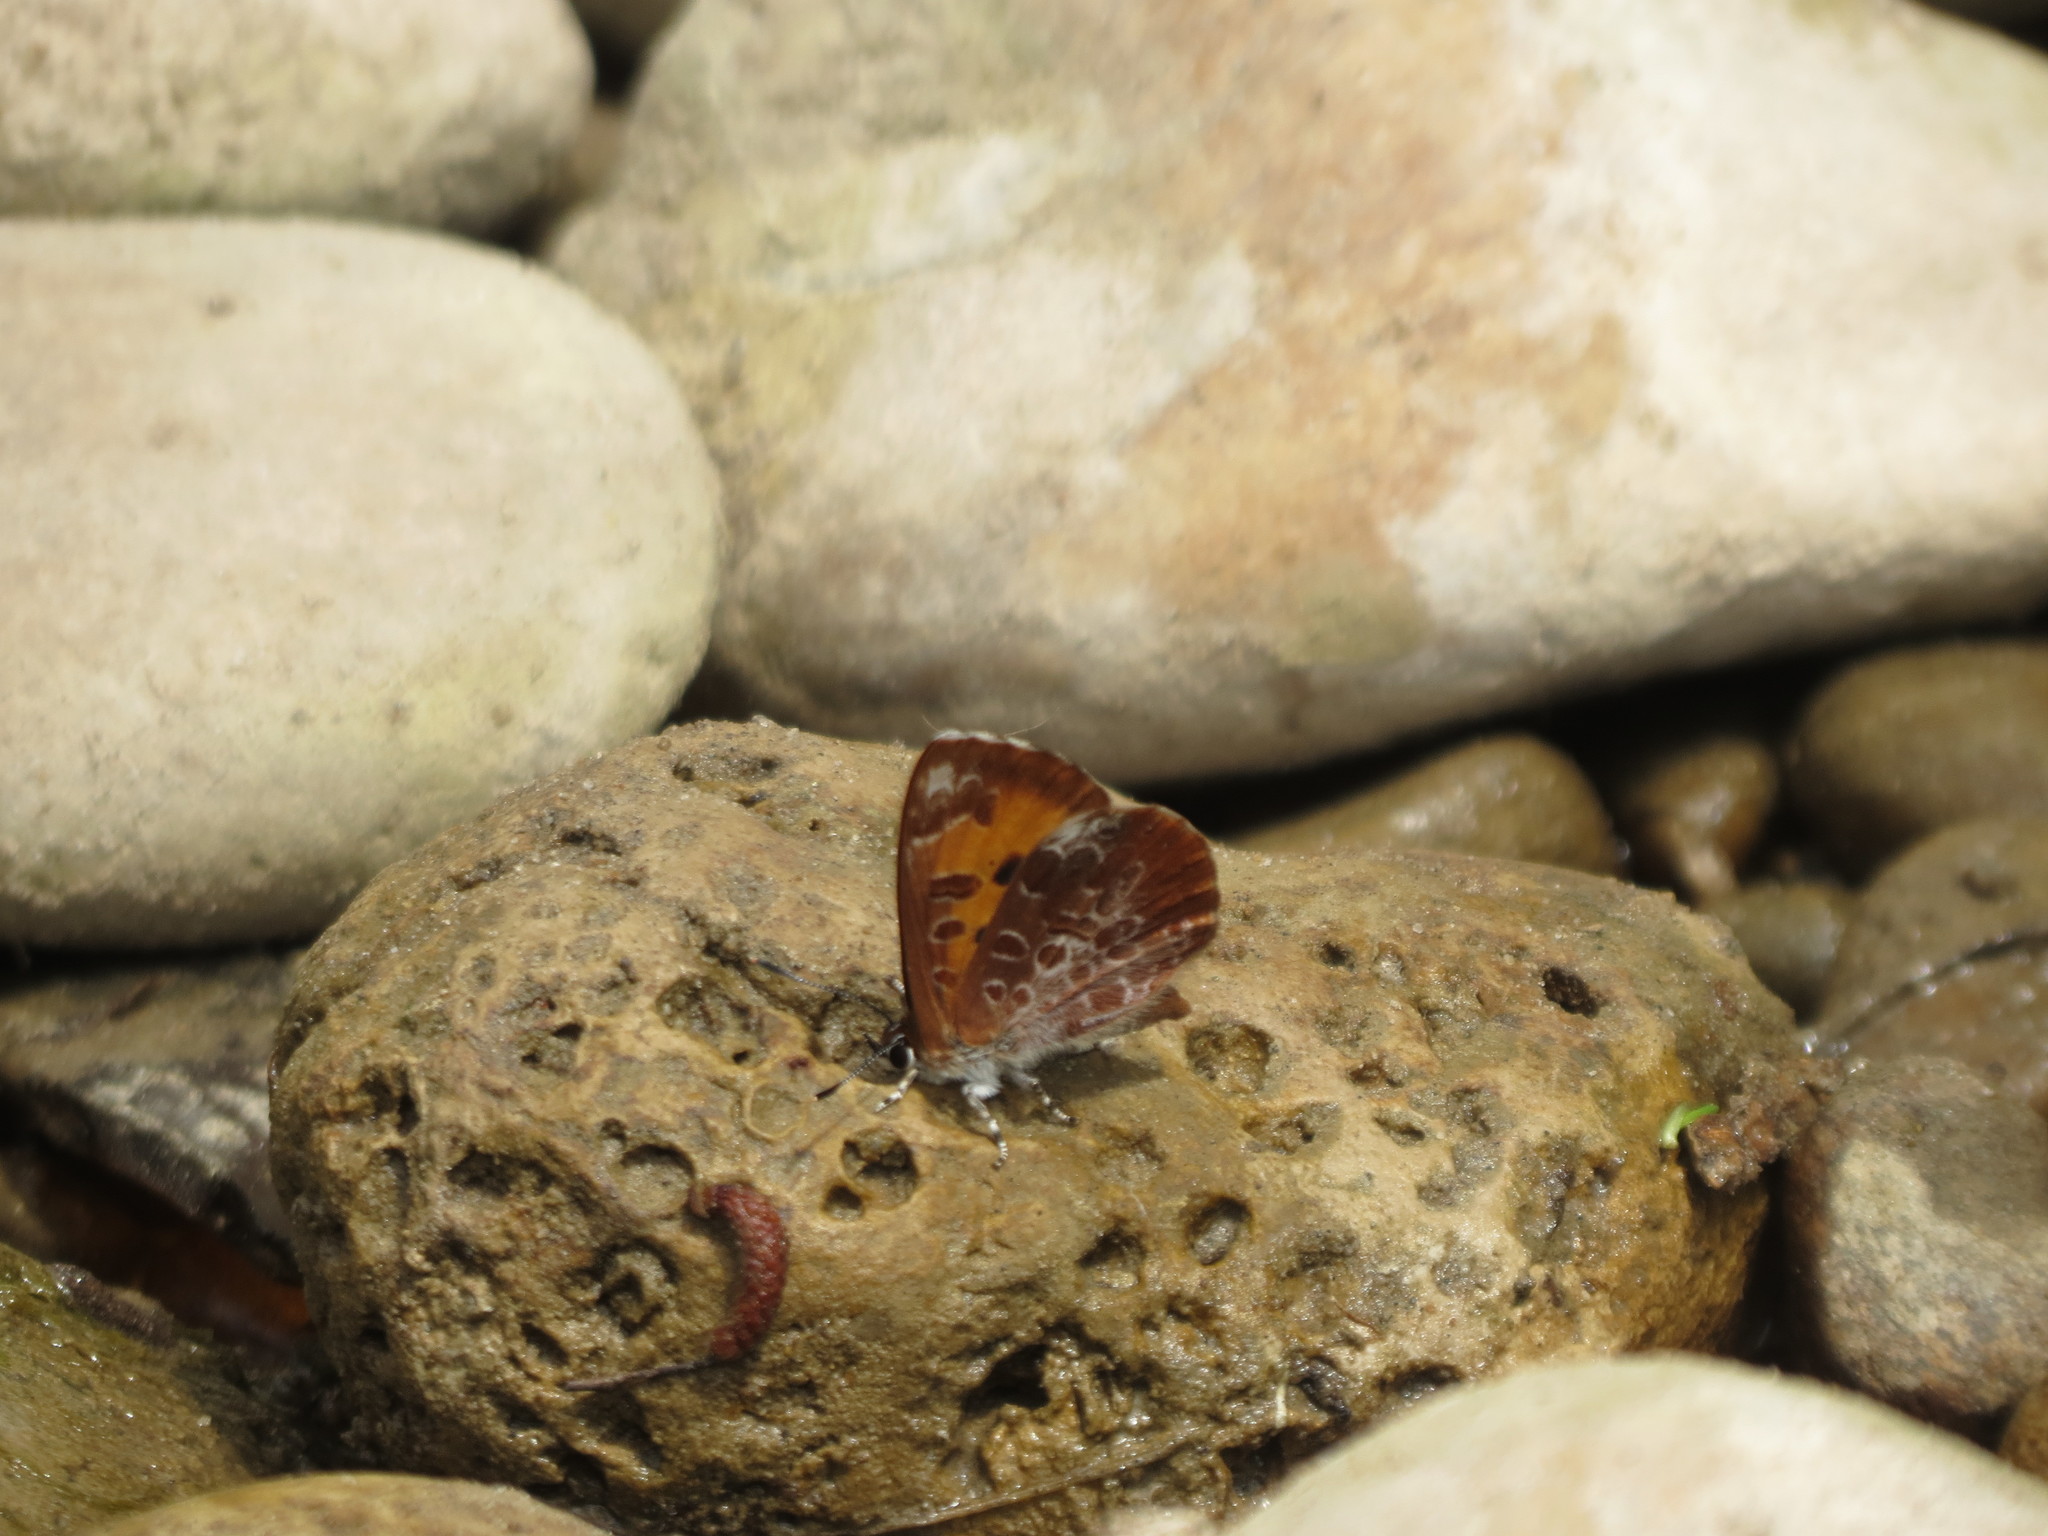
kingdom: Animalia
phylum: Arthropoda
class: Insecta
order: Lepidoptera
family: Lycaenidae
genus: Feniseca
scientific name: Feniseca tarquinius
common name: Harvester
